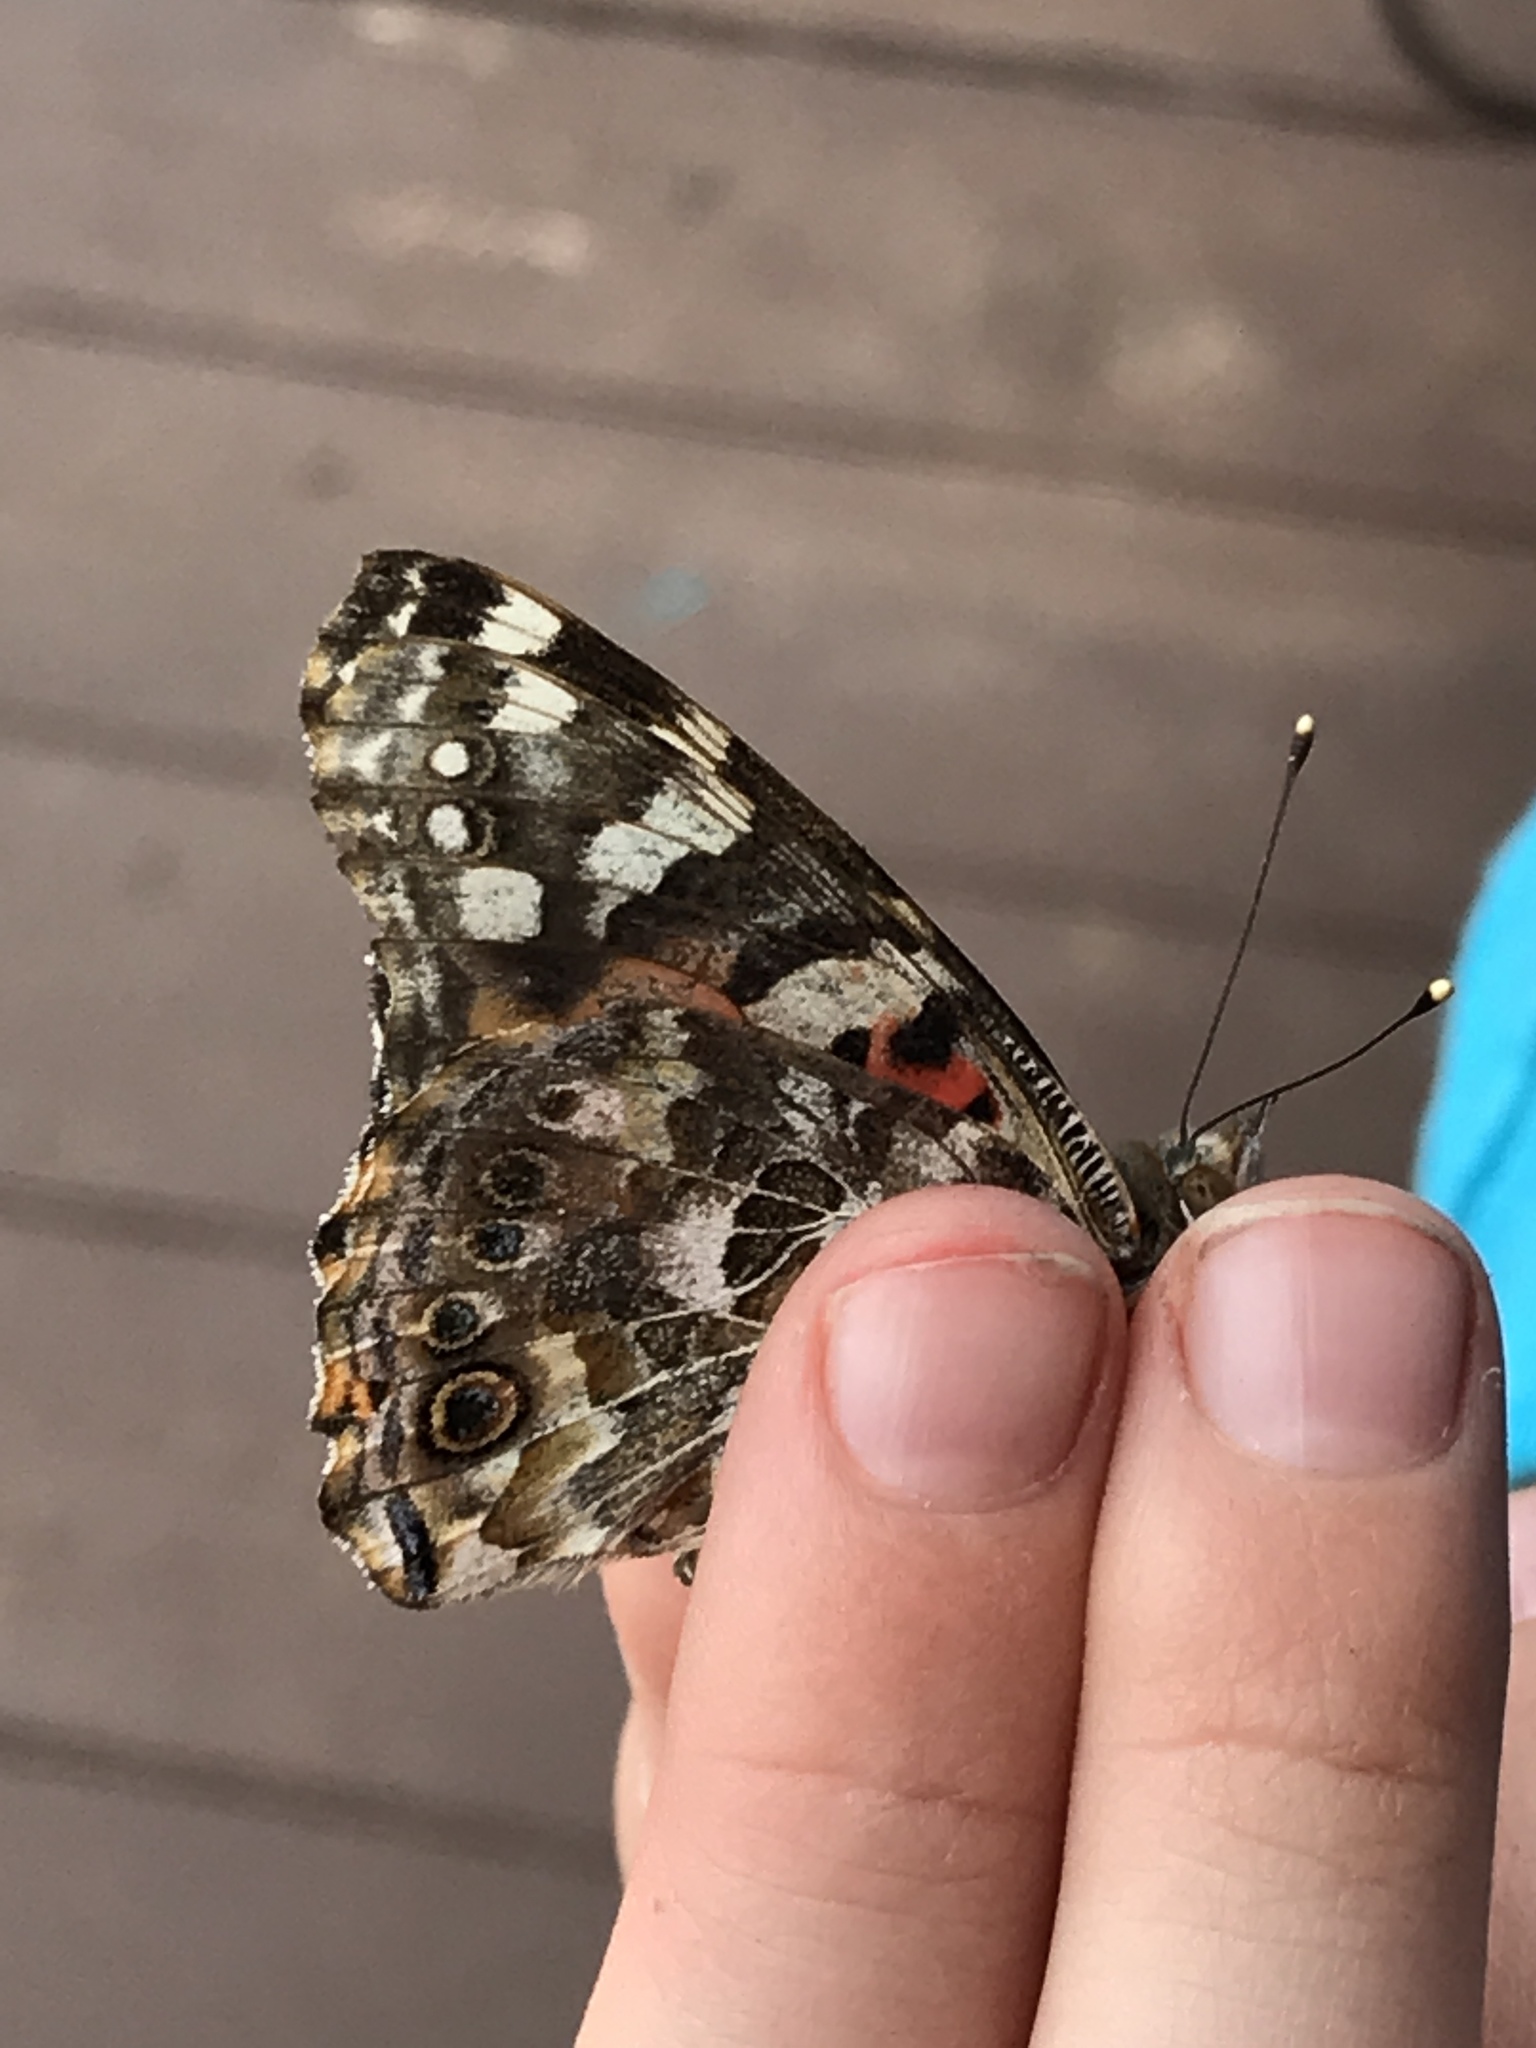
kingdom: Animalia
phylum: Arthropoda
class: Insecta
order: Lepidoptera
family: Nymphalidae
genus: Vanessa
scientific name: Vanessa cardui
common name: Painted lady
